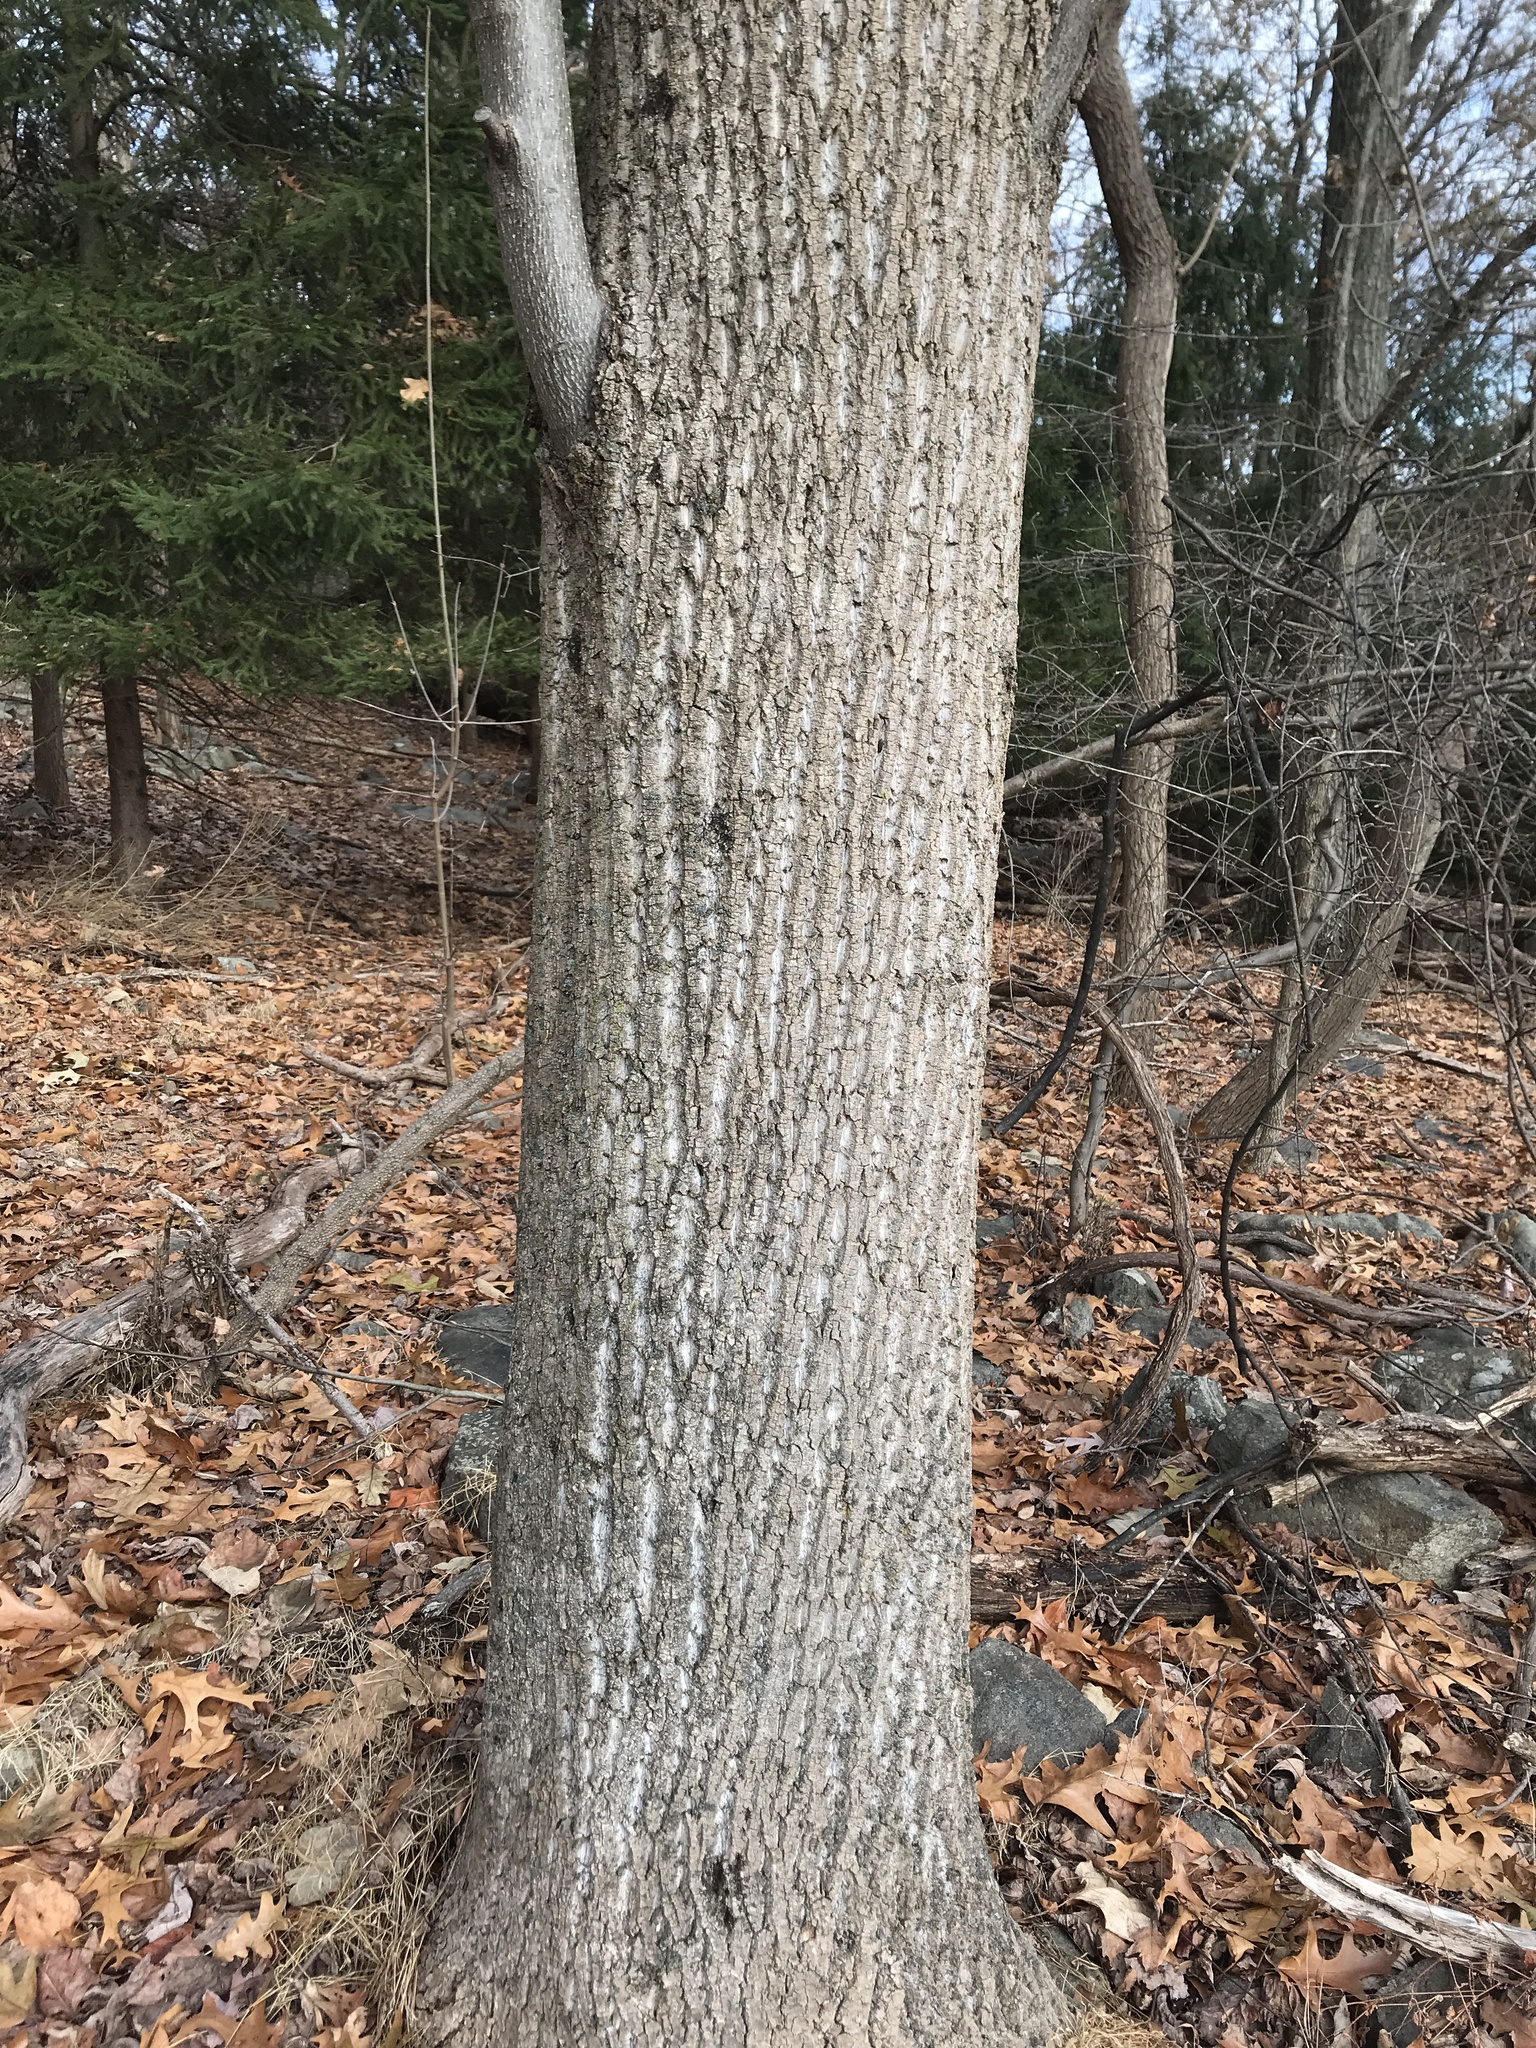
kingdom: Plantae
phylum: Tracheophyta
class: Magnoliopsida
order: Magnoliales
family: Magnoliaceae
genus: Liriodendron
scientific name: Liriodendron tulipifera
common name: Tulip tree
